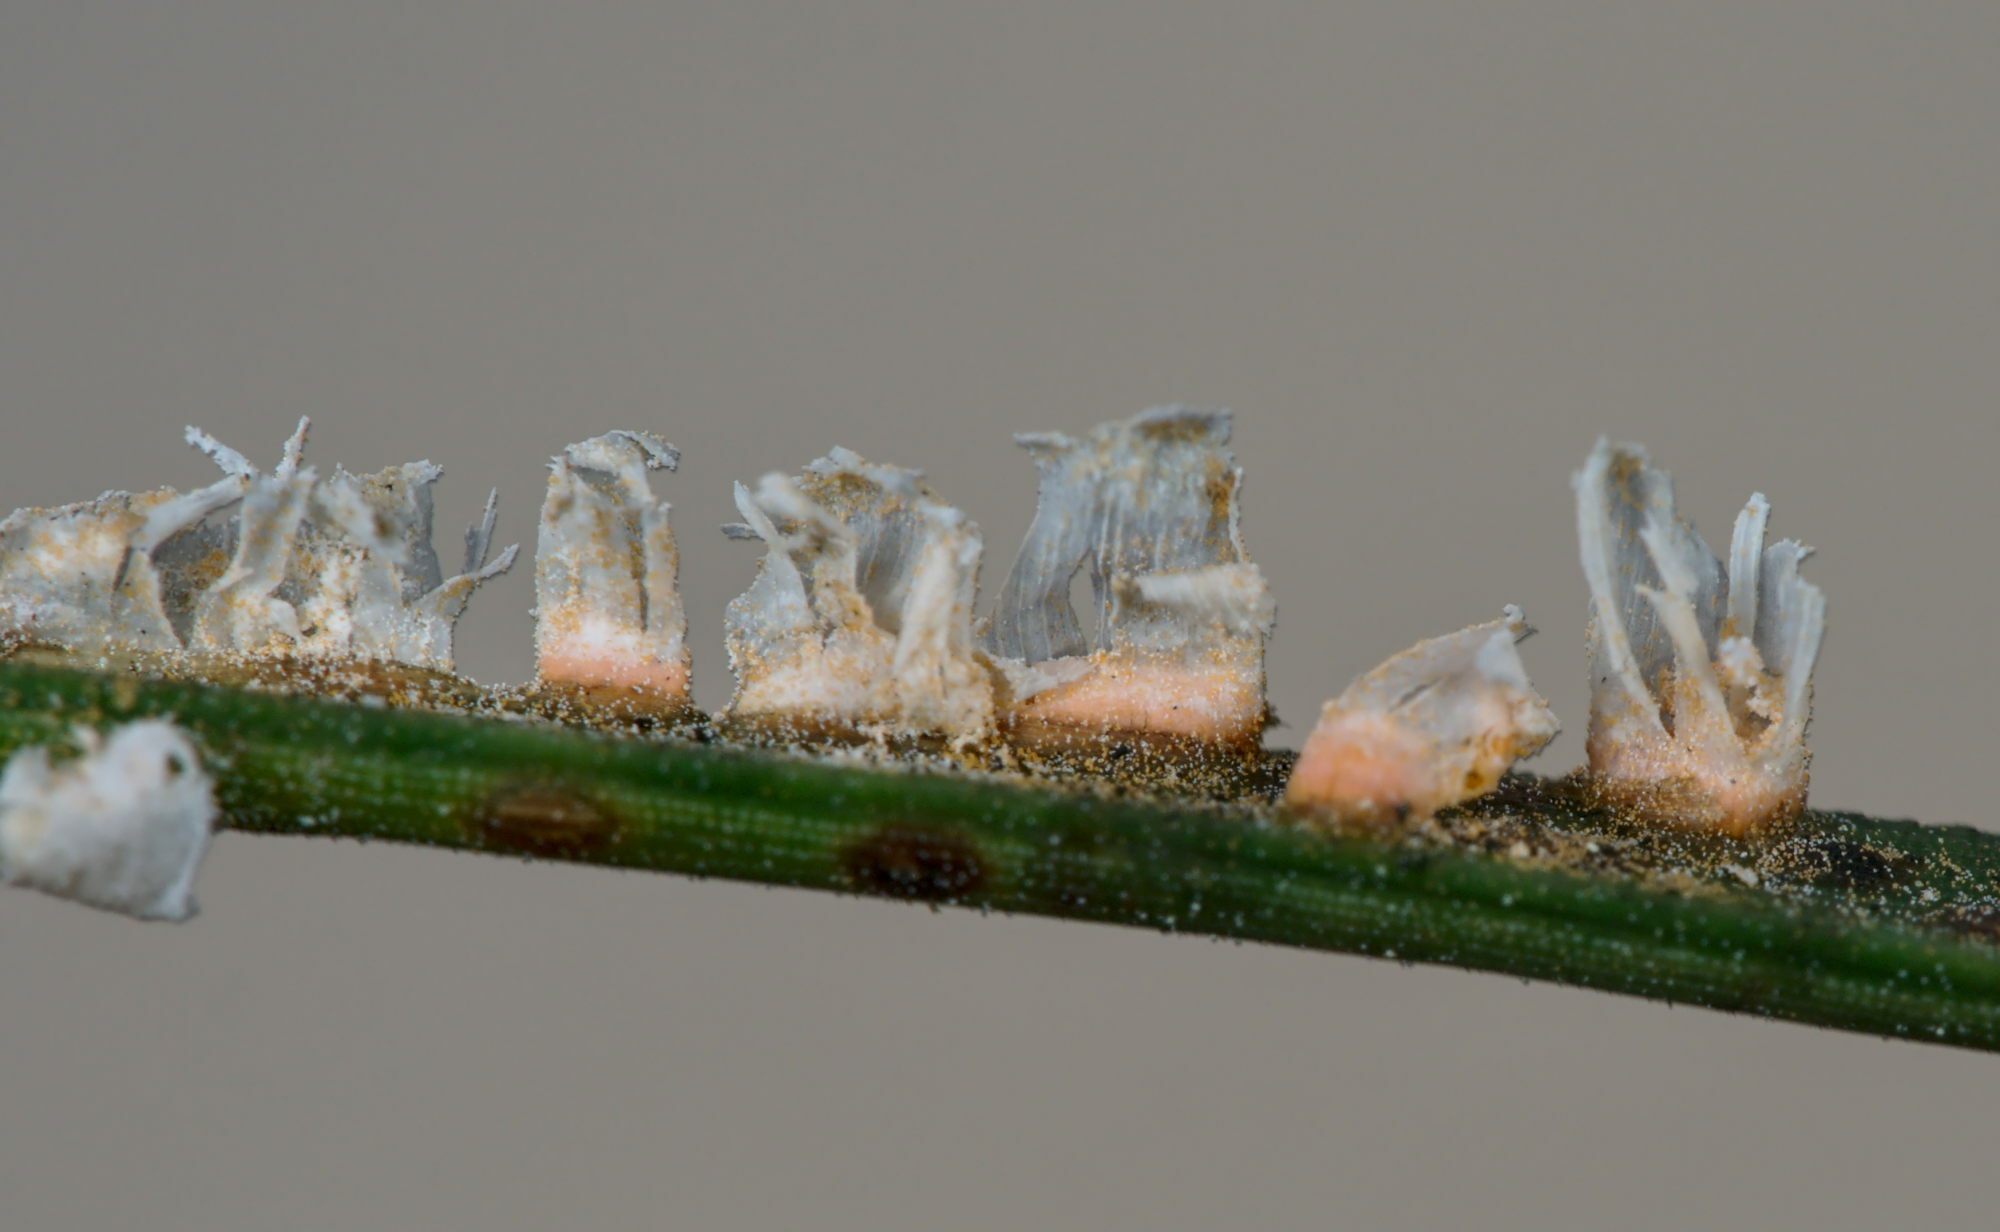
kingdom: Fungi
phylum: Basidiomycota
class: Pucciniomycetes
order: Pucciniales
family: Cronartiaceae
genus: Peridermium
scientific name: Peridermium oblongisporium
